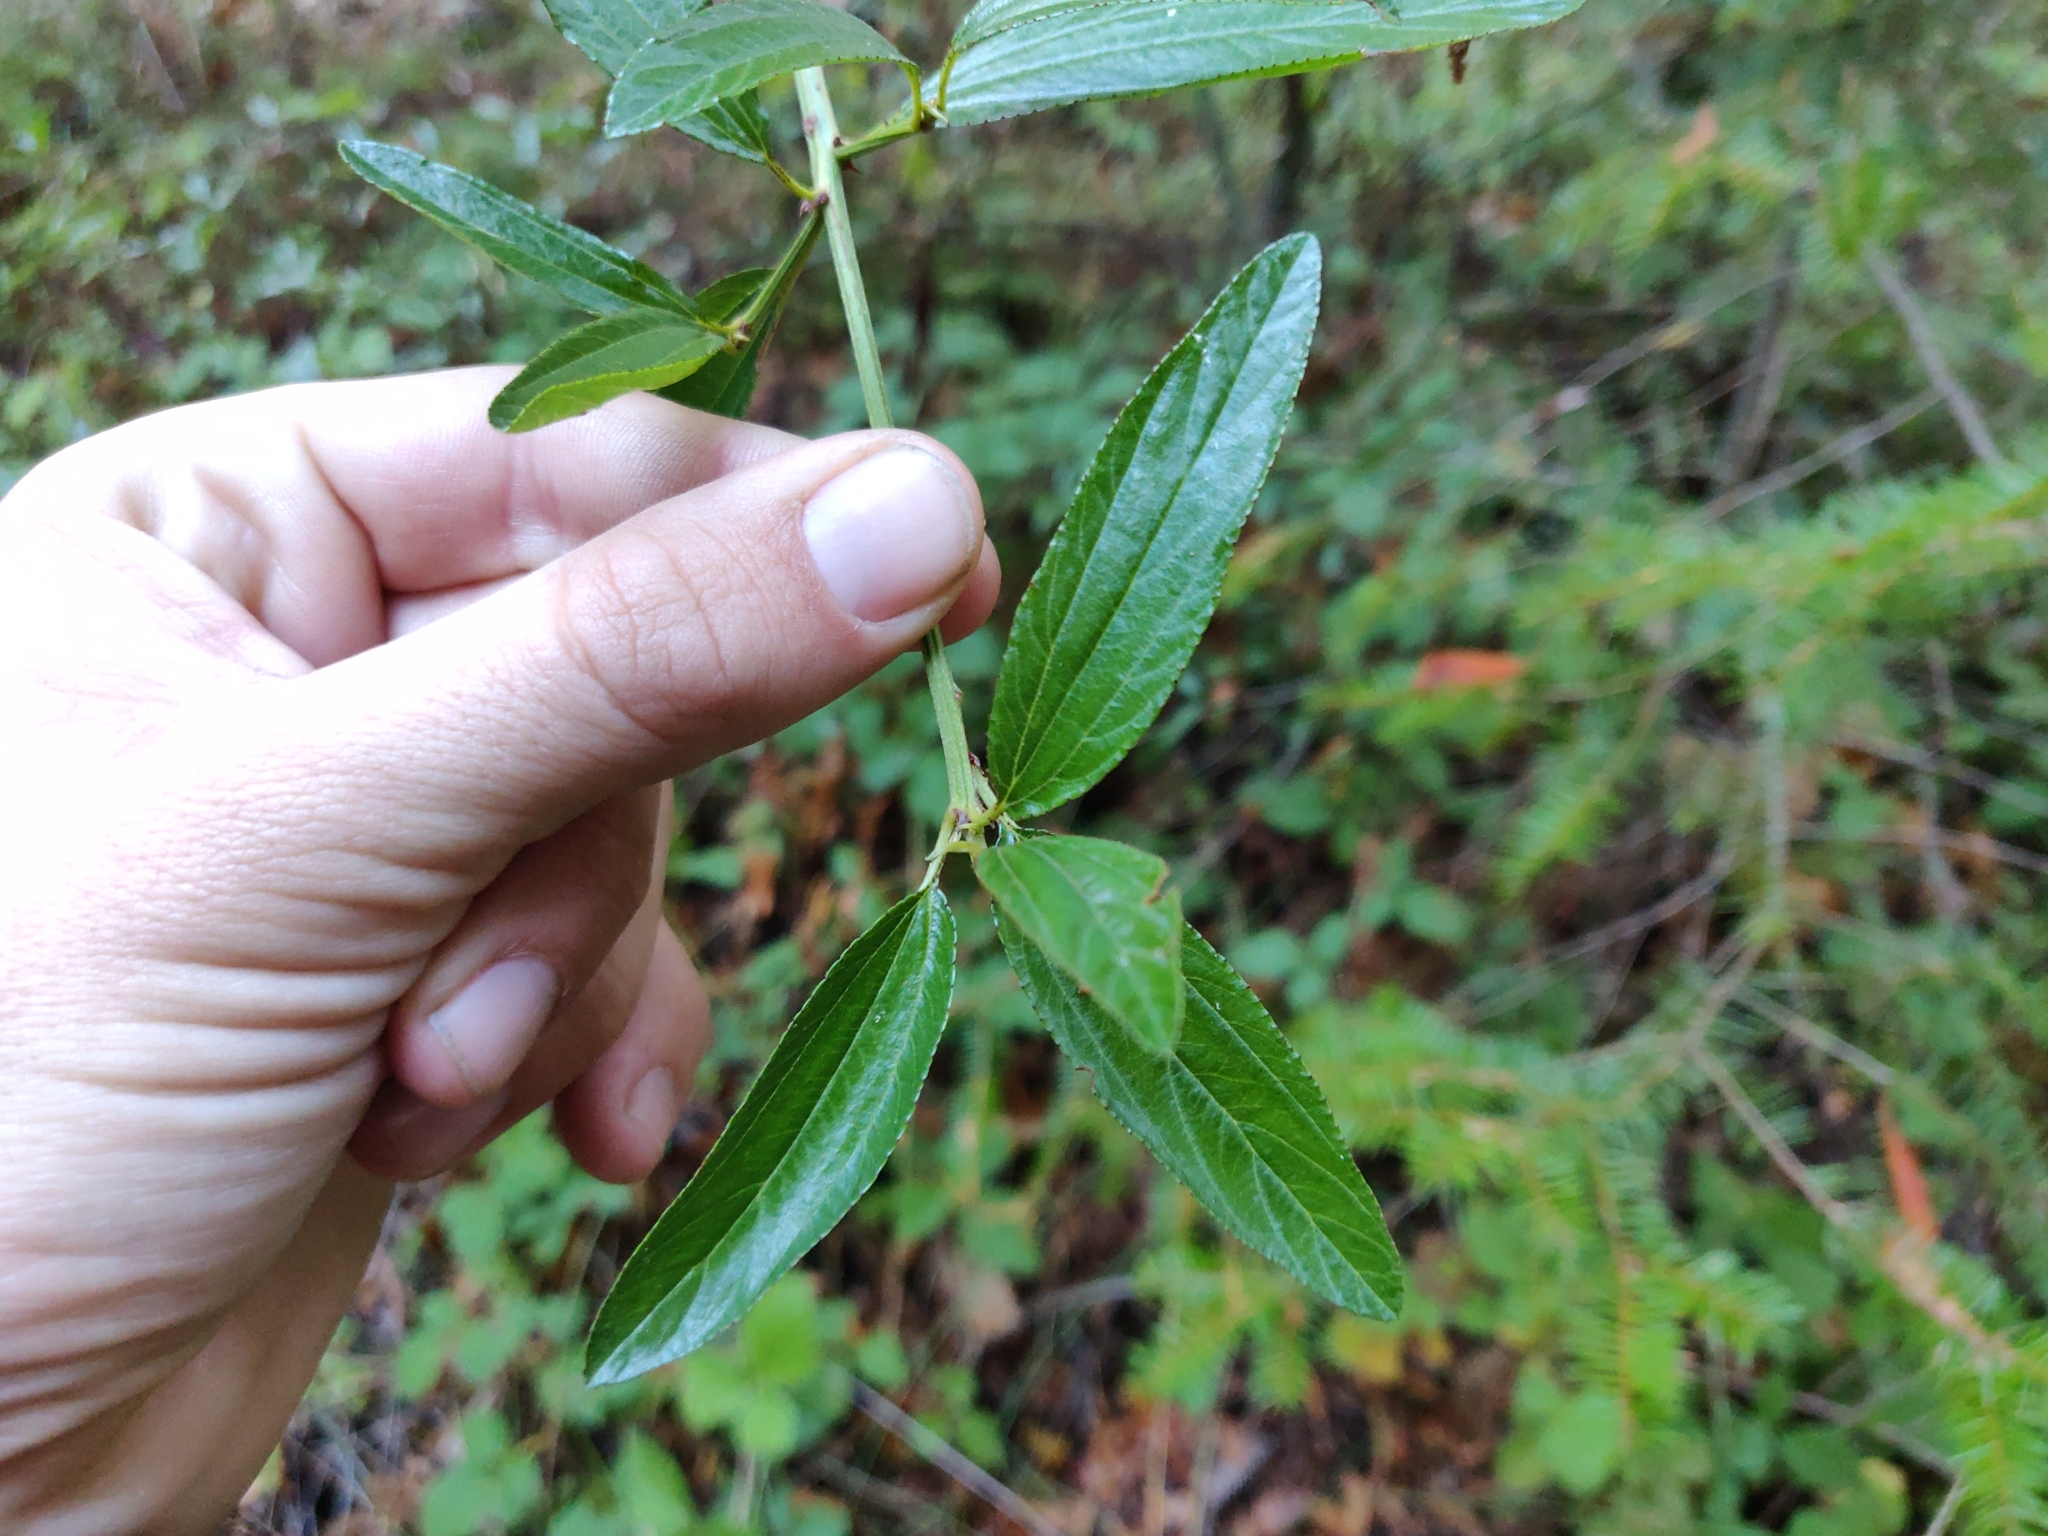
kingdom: Plantae
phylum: Tracheophyta
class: Magnoliopsida
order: Rosales
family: Rhamnaceae
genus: Ceanothus
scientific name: Ceanothus thyrsiflorus
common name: California-lilac
